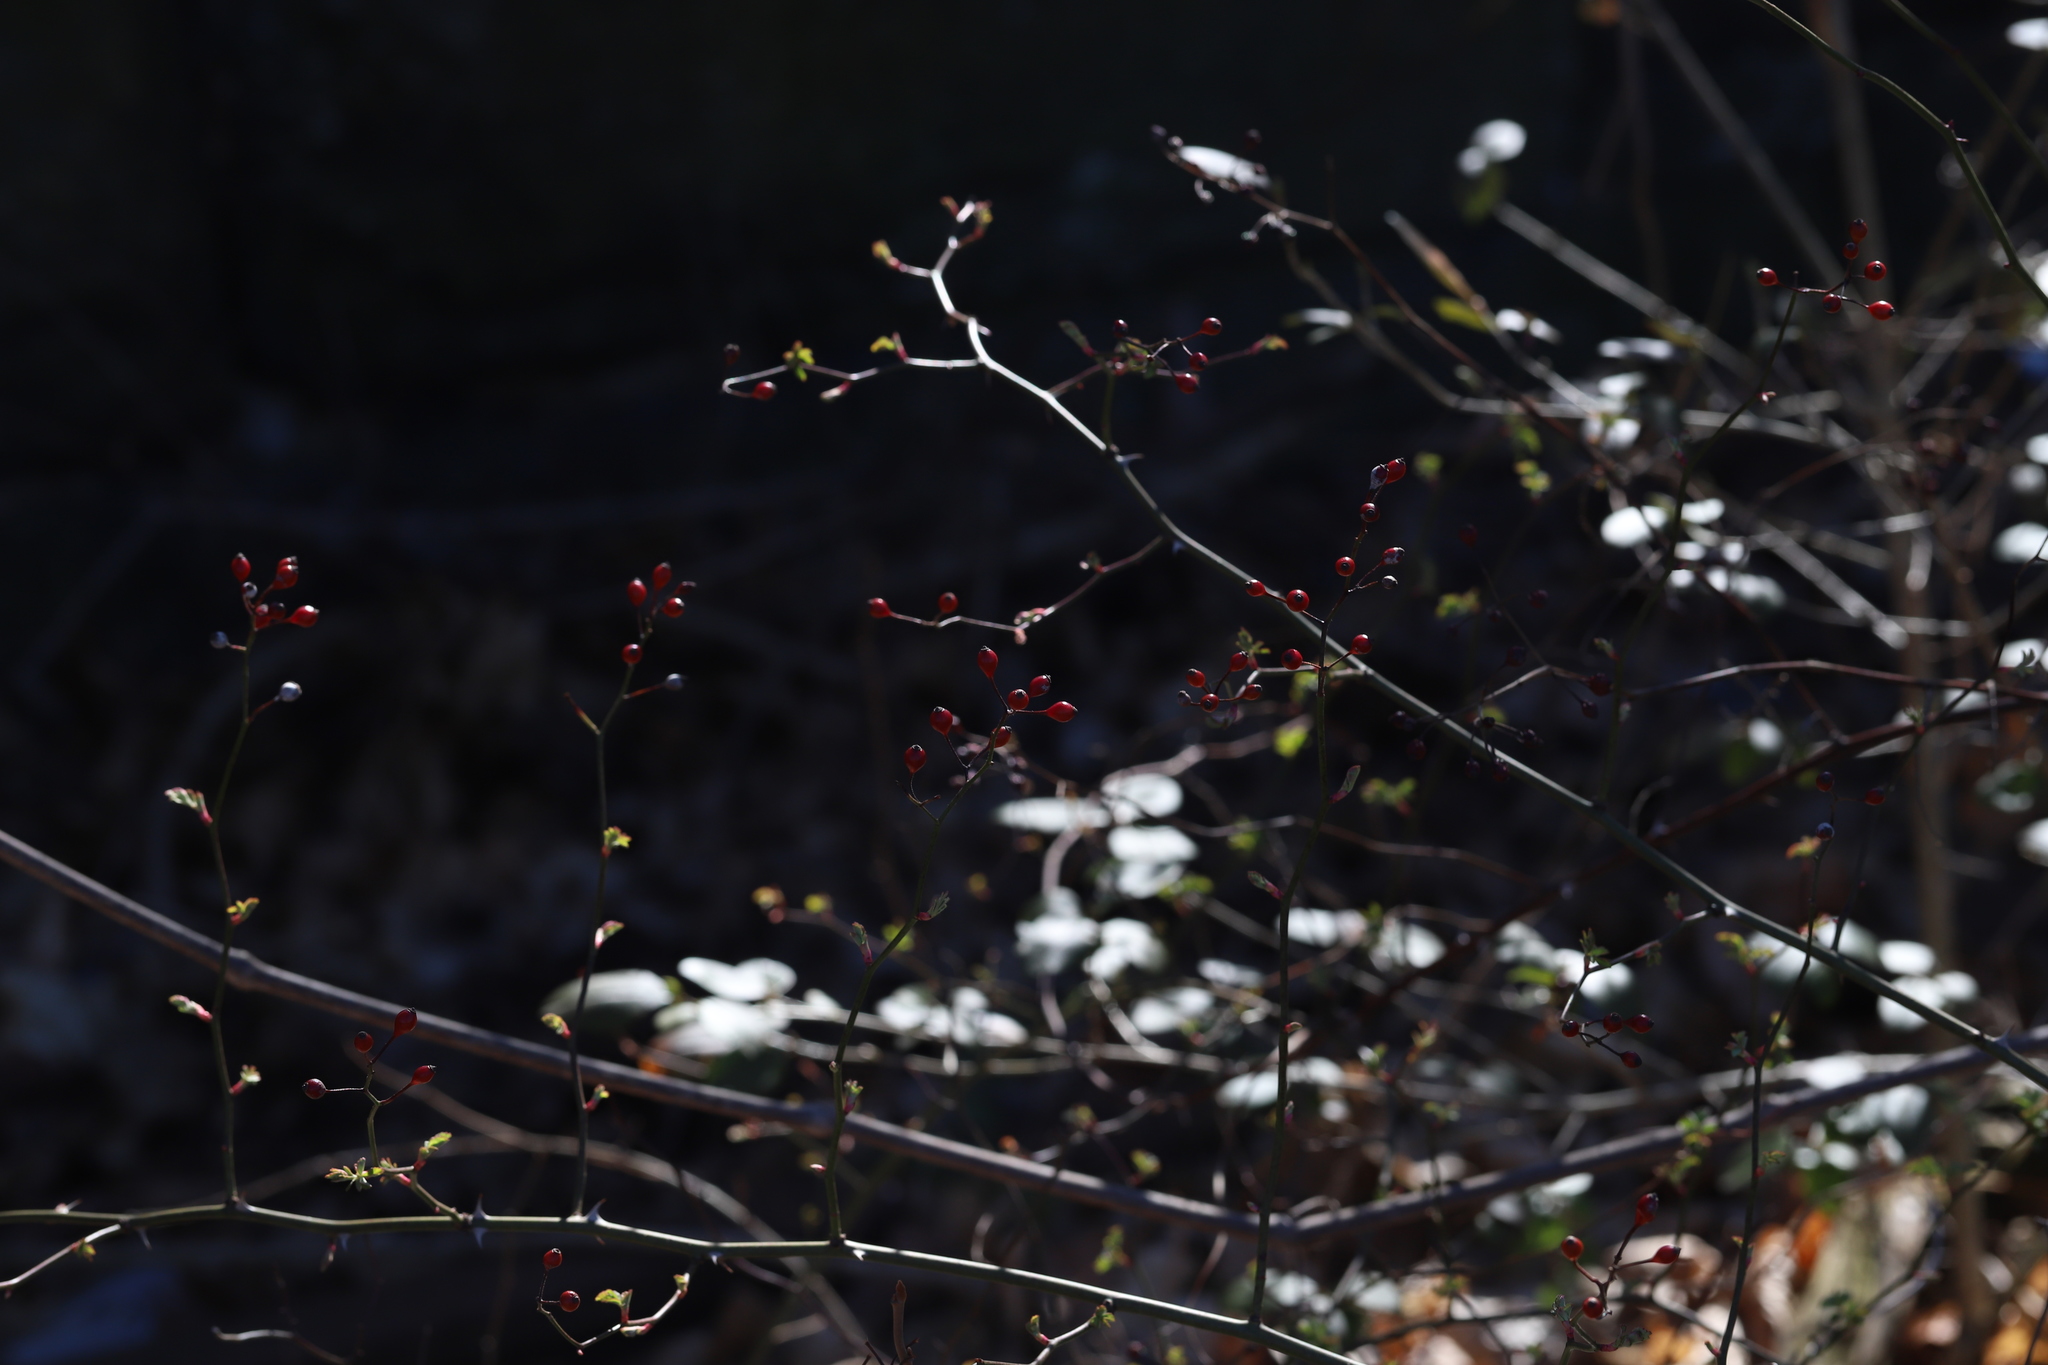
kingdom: Plantae
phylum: Tracheophyta
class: Magnoliopsida
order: Rosales
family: Rosaceae
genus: Rosa
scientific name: Rosa multiflora
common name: Multiflora rose
